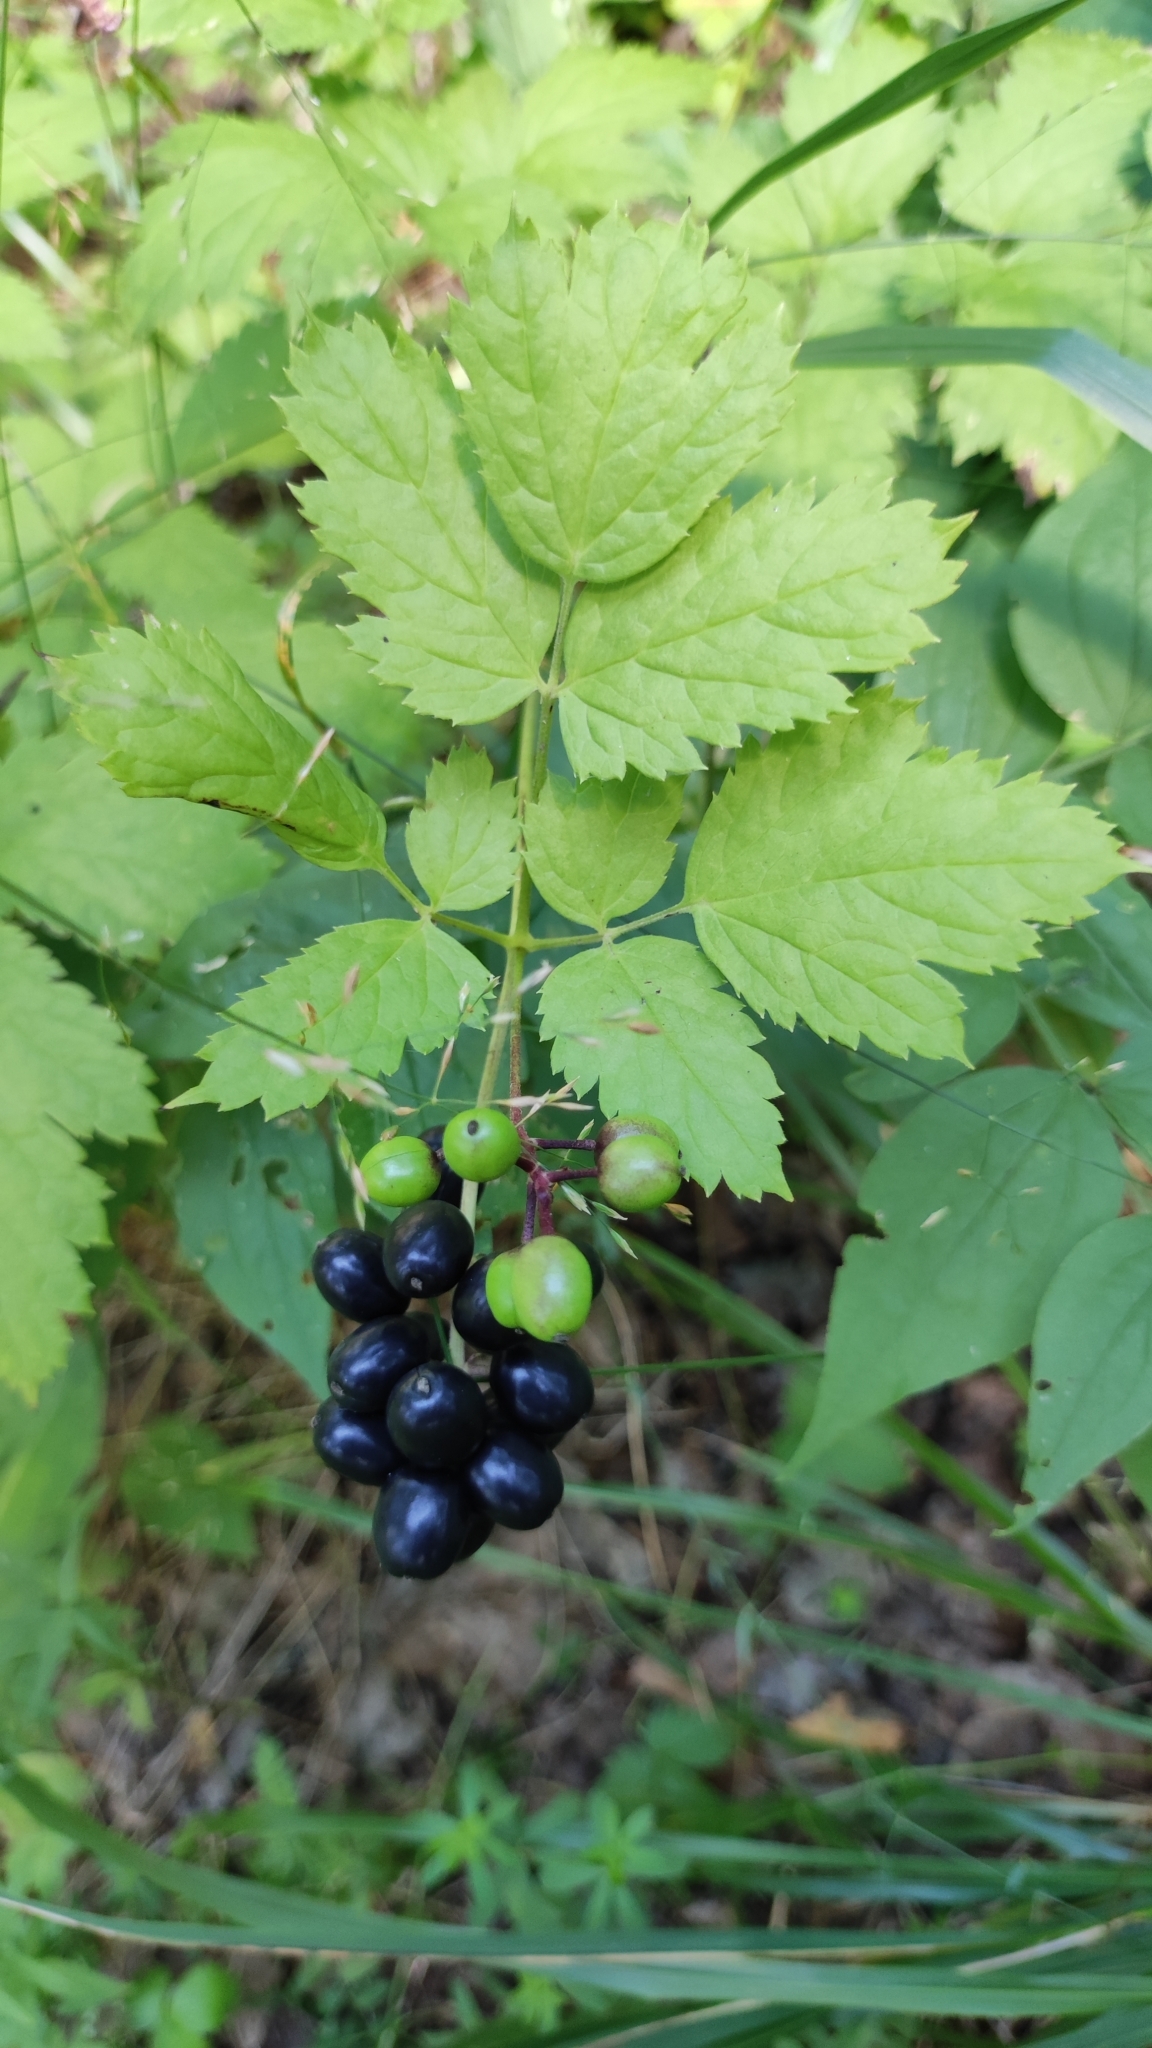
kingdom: Plantae
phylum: Tracheophyta
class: Magnoliopsida
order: Ranunculales
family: Ranunculaceae
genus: Actaea
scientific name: Actaea spicata
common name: Baneberry
